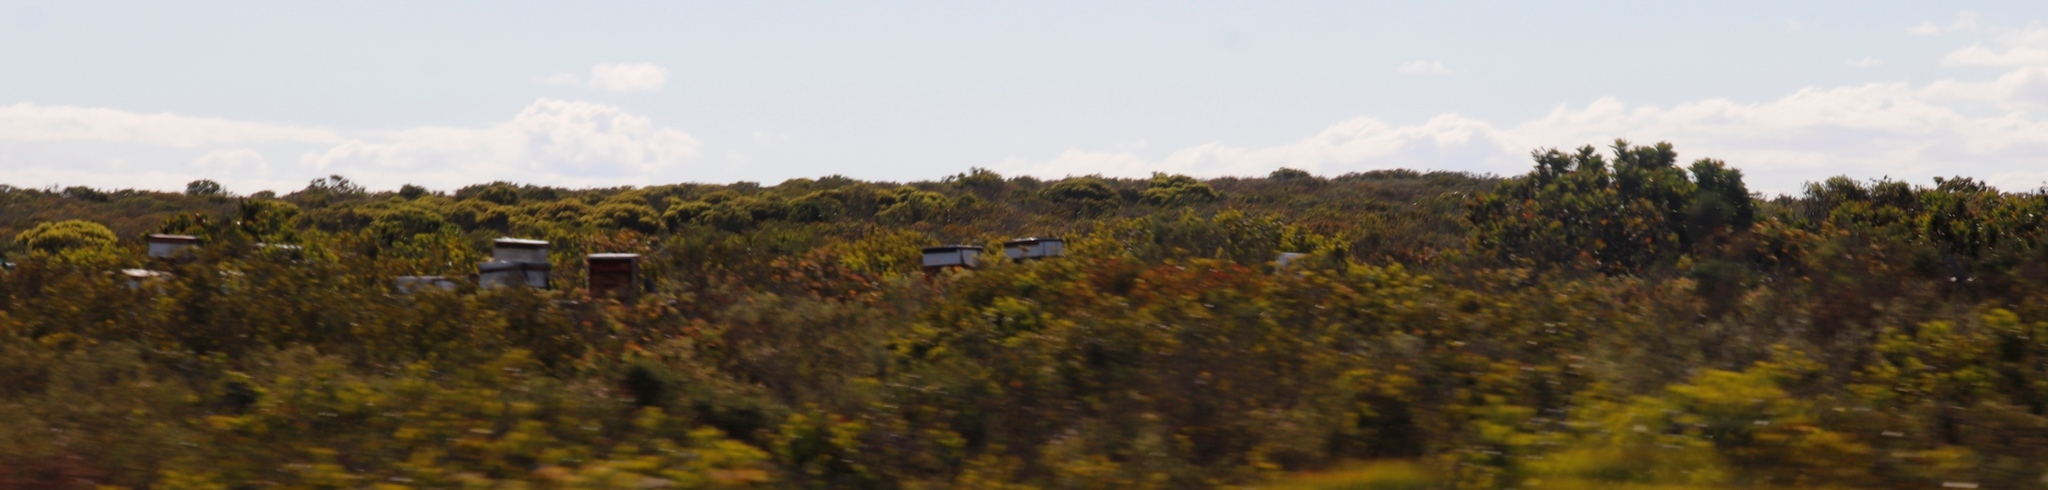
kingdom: Animalia
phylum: Arthropoda
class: Insecta
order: Hymenoptera
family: Apidae
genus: Apis
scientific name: Apis mellifera
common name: Honey bee
